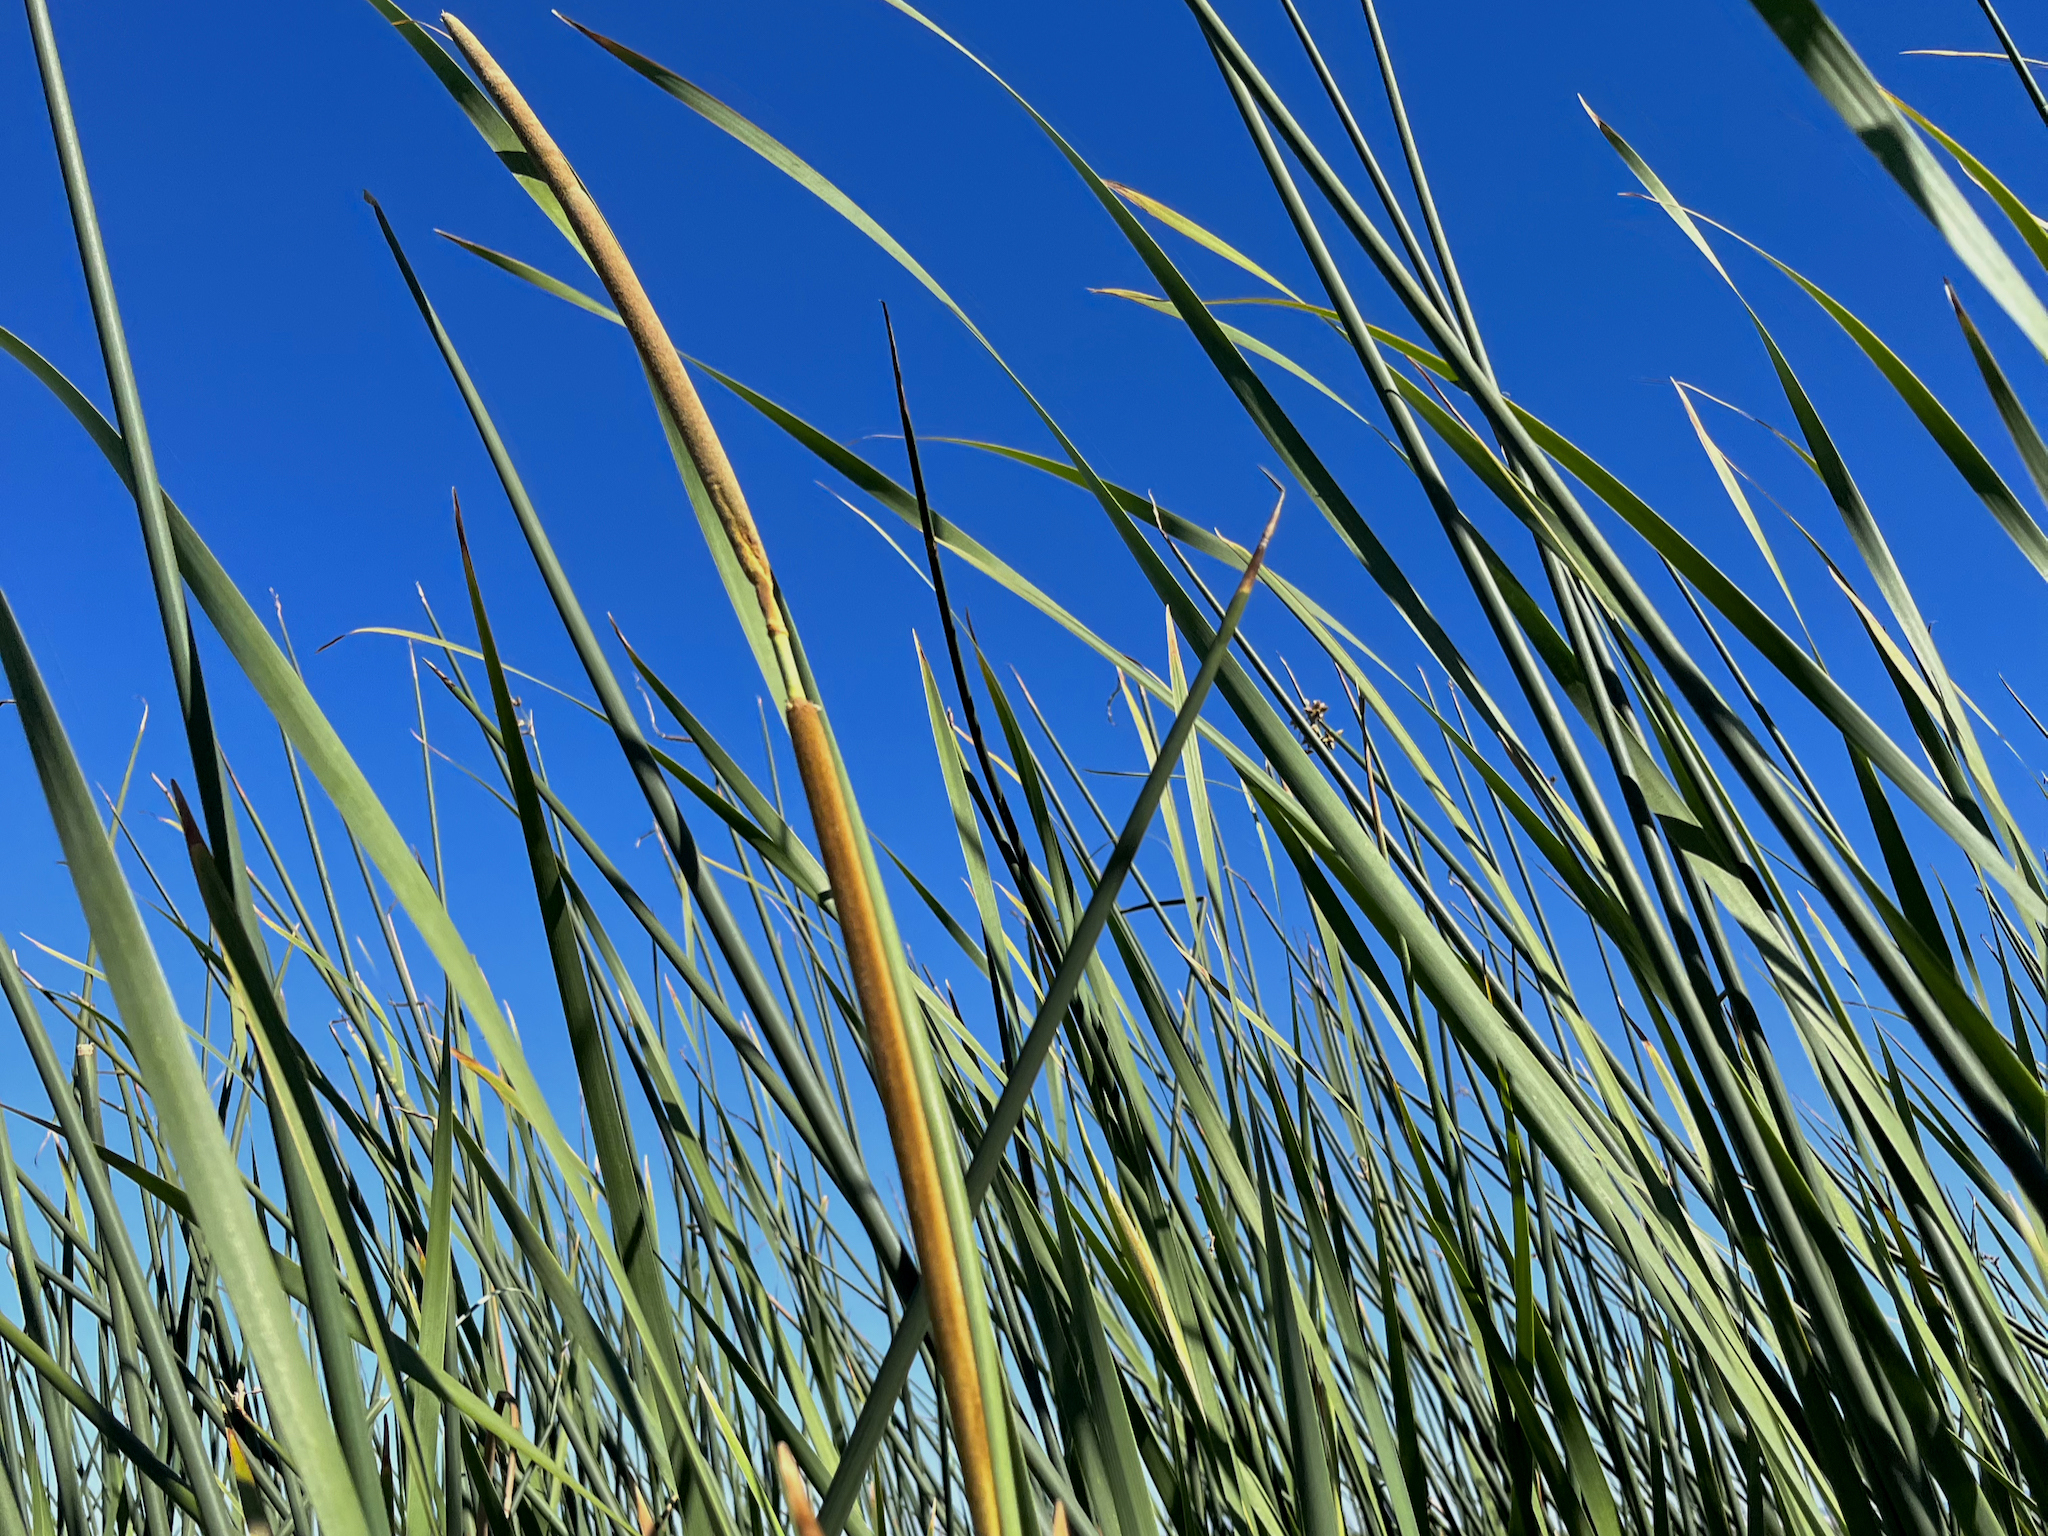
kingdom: Plantae
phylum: Tracheophyta
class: Liliopsida
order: Poales
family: Typhaceae
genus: Typha
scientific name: Typha domingensis
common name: Southern cattail
